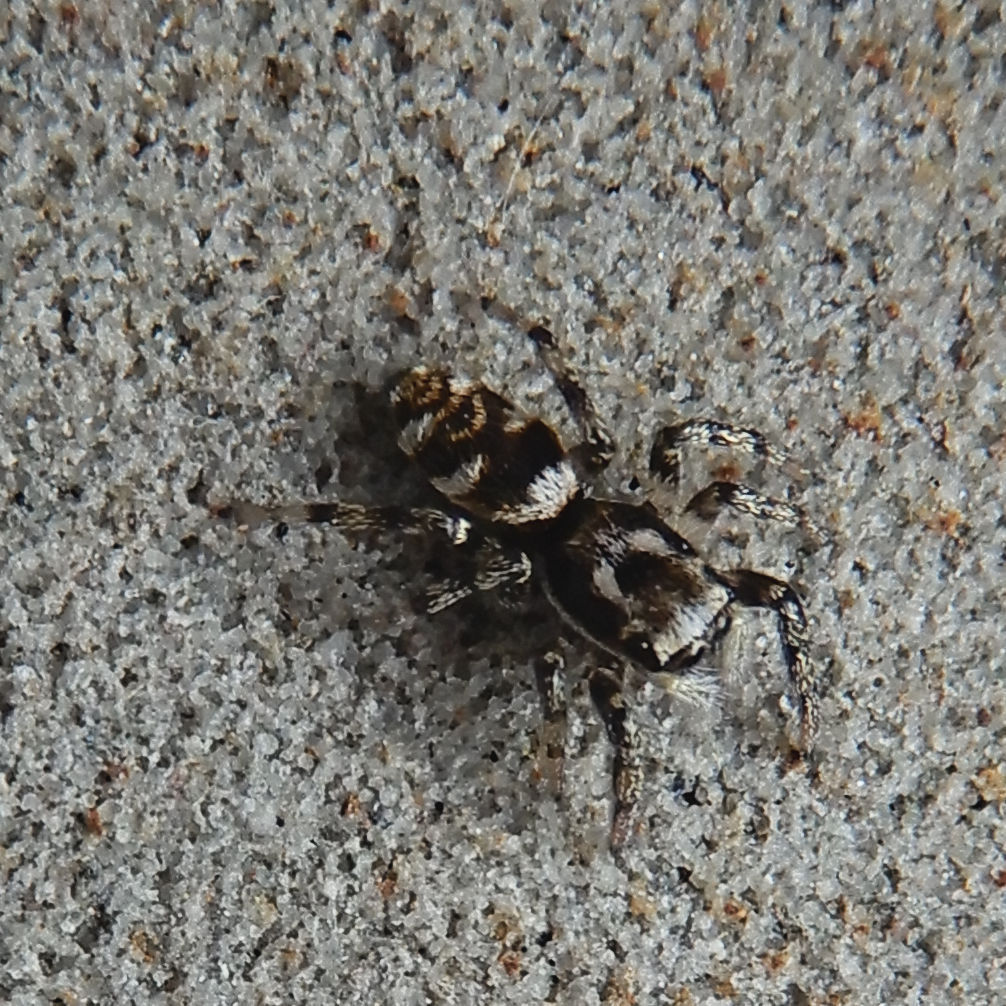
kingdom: Animalia
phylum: Arthropoda
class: Arachnida
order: Araneae
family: Salticidae
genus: Salticus
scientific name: Salticus scenicus
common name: Zebra jumper
